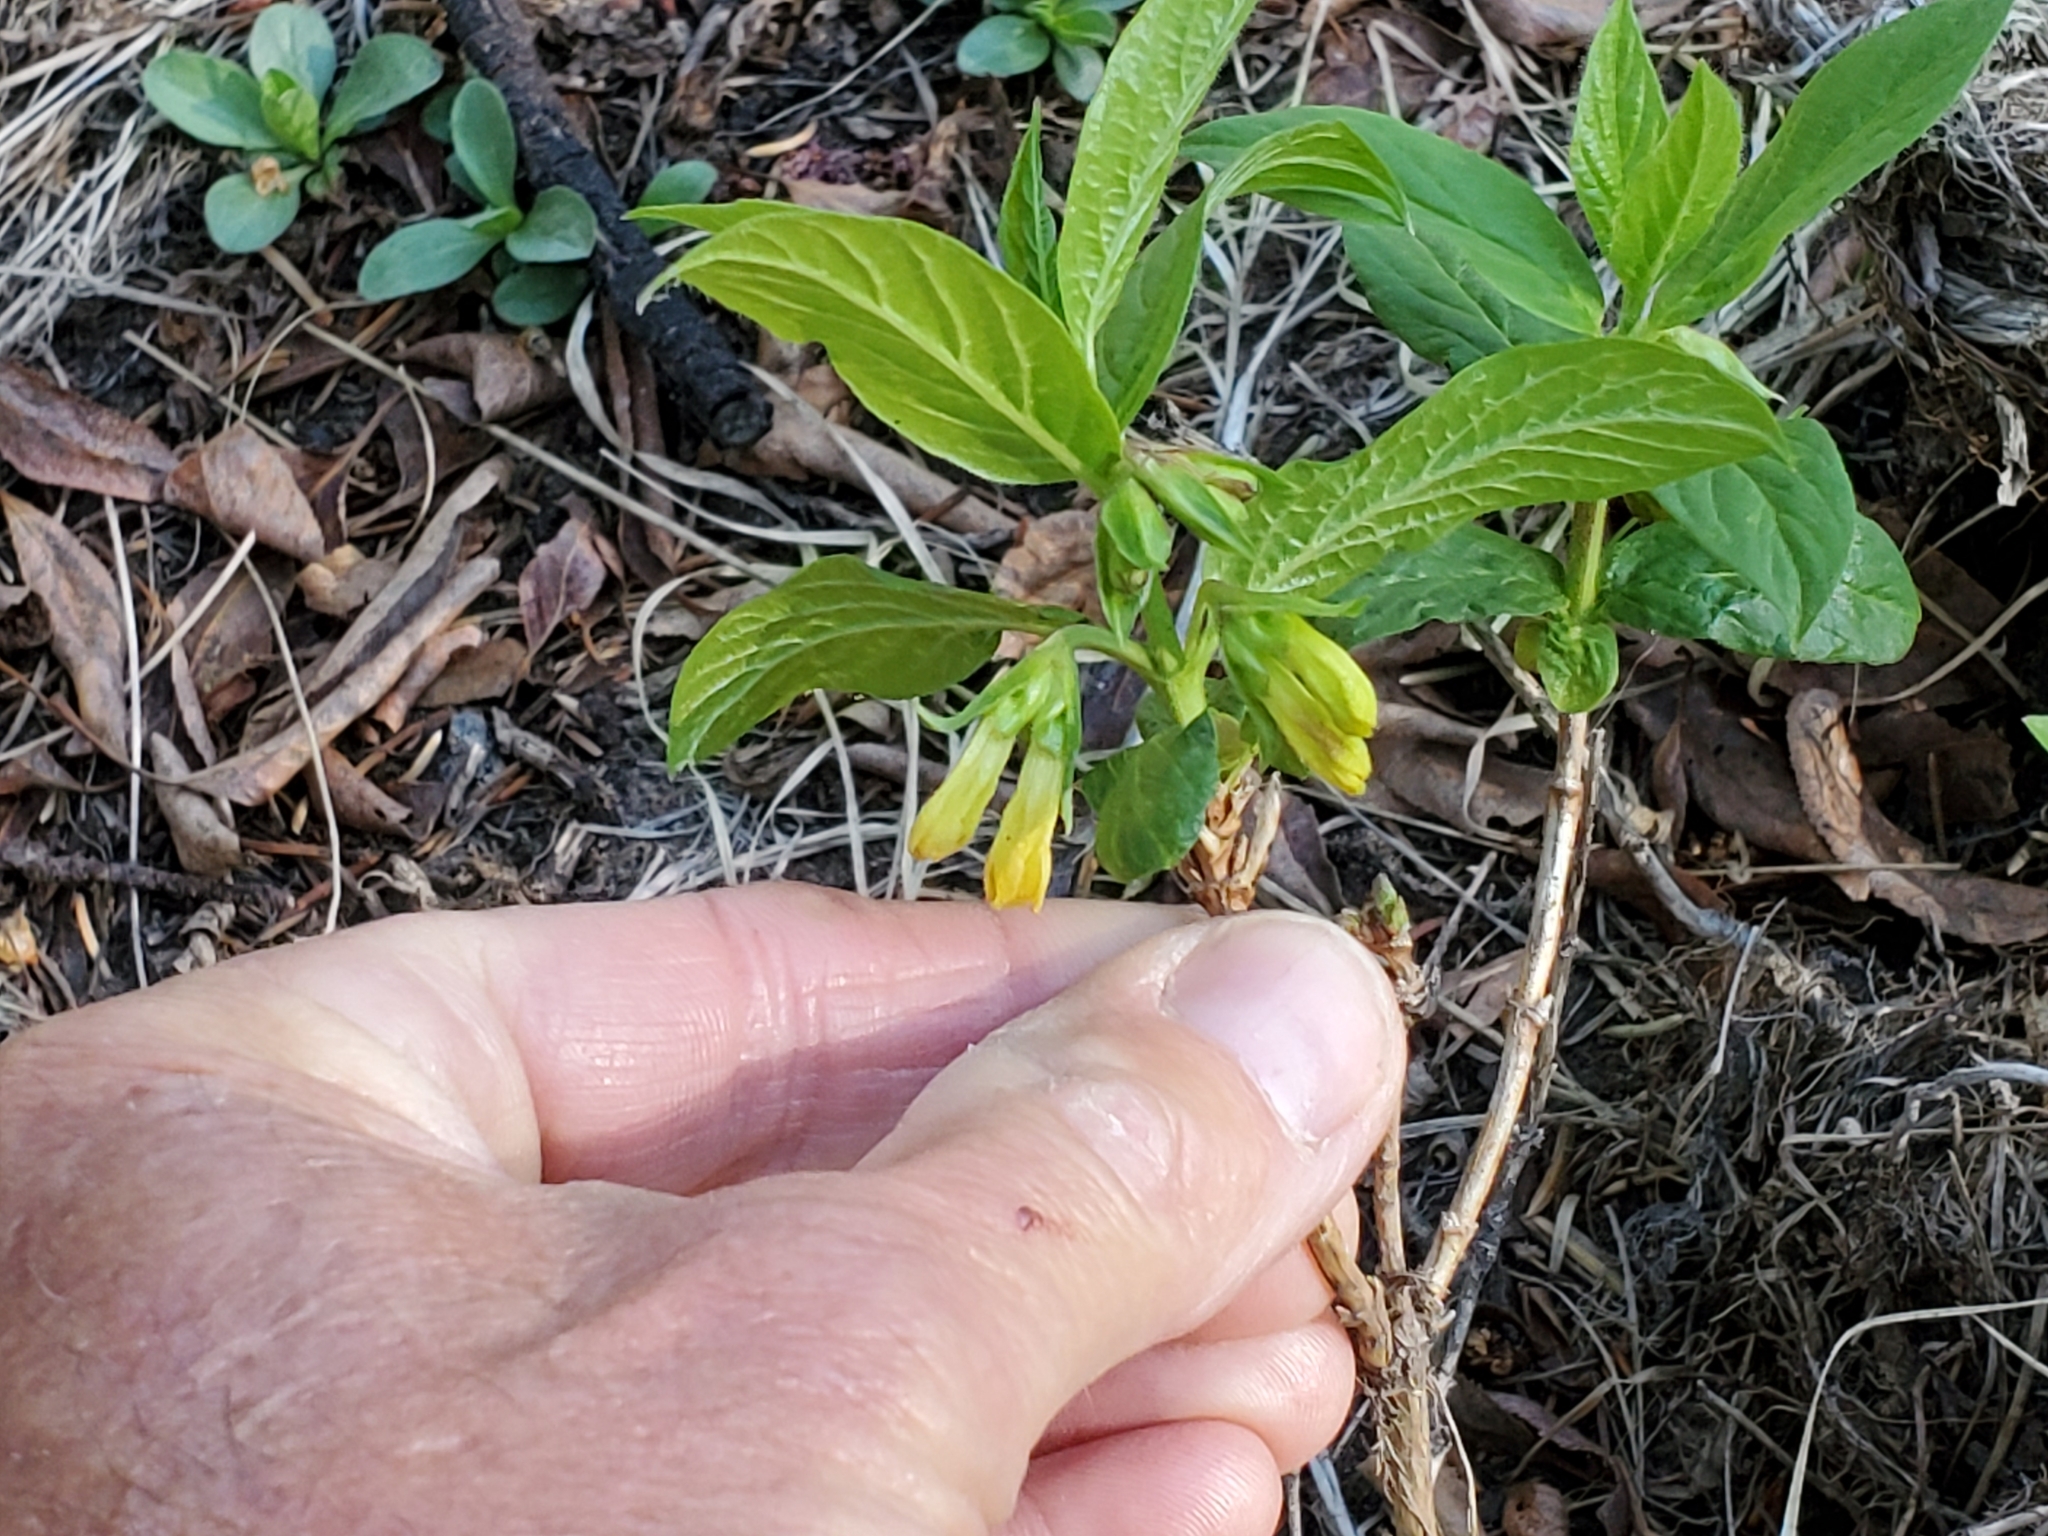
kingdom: Plantae
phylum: Tracheophyta
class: Magnoliopsida
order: Dipsacales
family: Caprifoliaceae
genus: Lonicera
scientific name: Lonicera involucrata
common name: Californian honeysuckle
